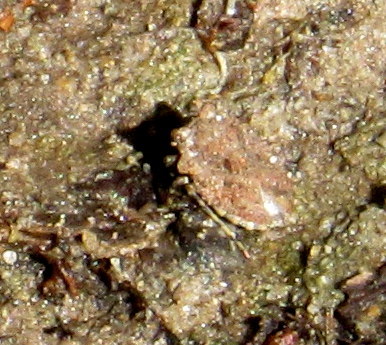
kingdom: Animalia
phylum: Arthropoda
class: Insecta
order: Hemiptera
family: Gelastocoridae
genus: Gelastocoris
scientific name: Gelastocoris oculatus
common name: Toad bug
